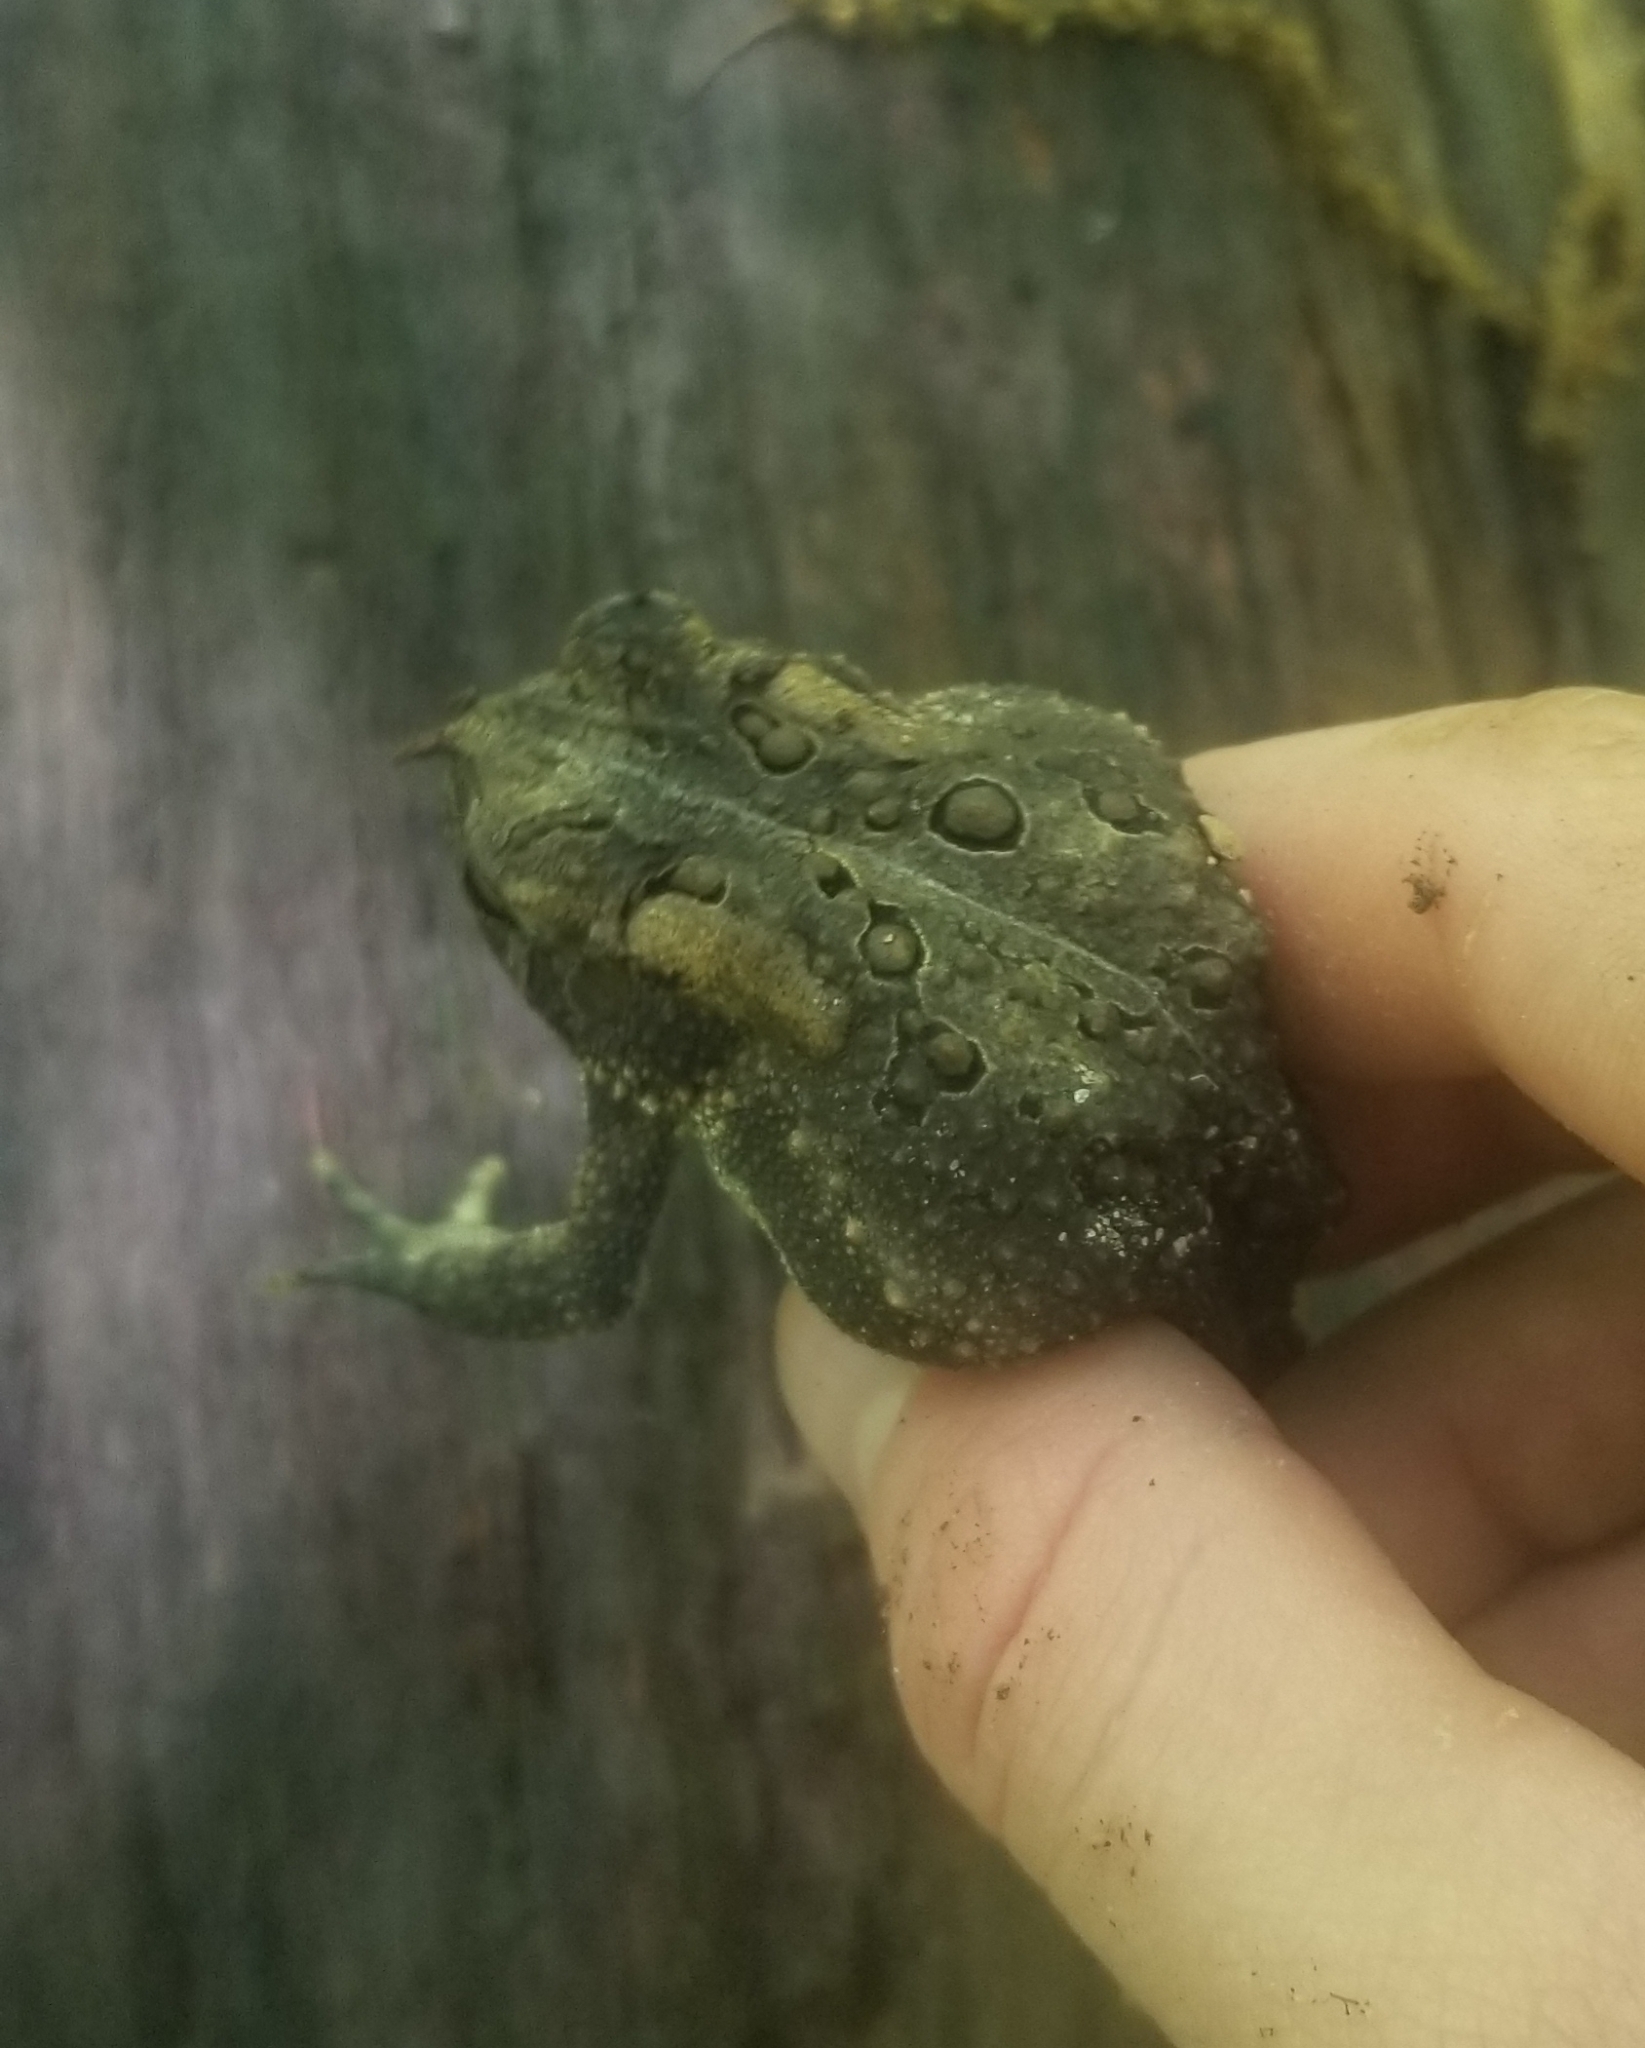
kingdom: Animalia
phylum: Chordata
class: Amphibia
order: Anura
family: Bufonidae
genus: Anaxyrus
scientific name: Anaxyrus americanus
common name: American toad
